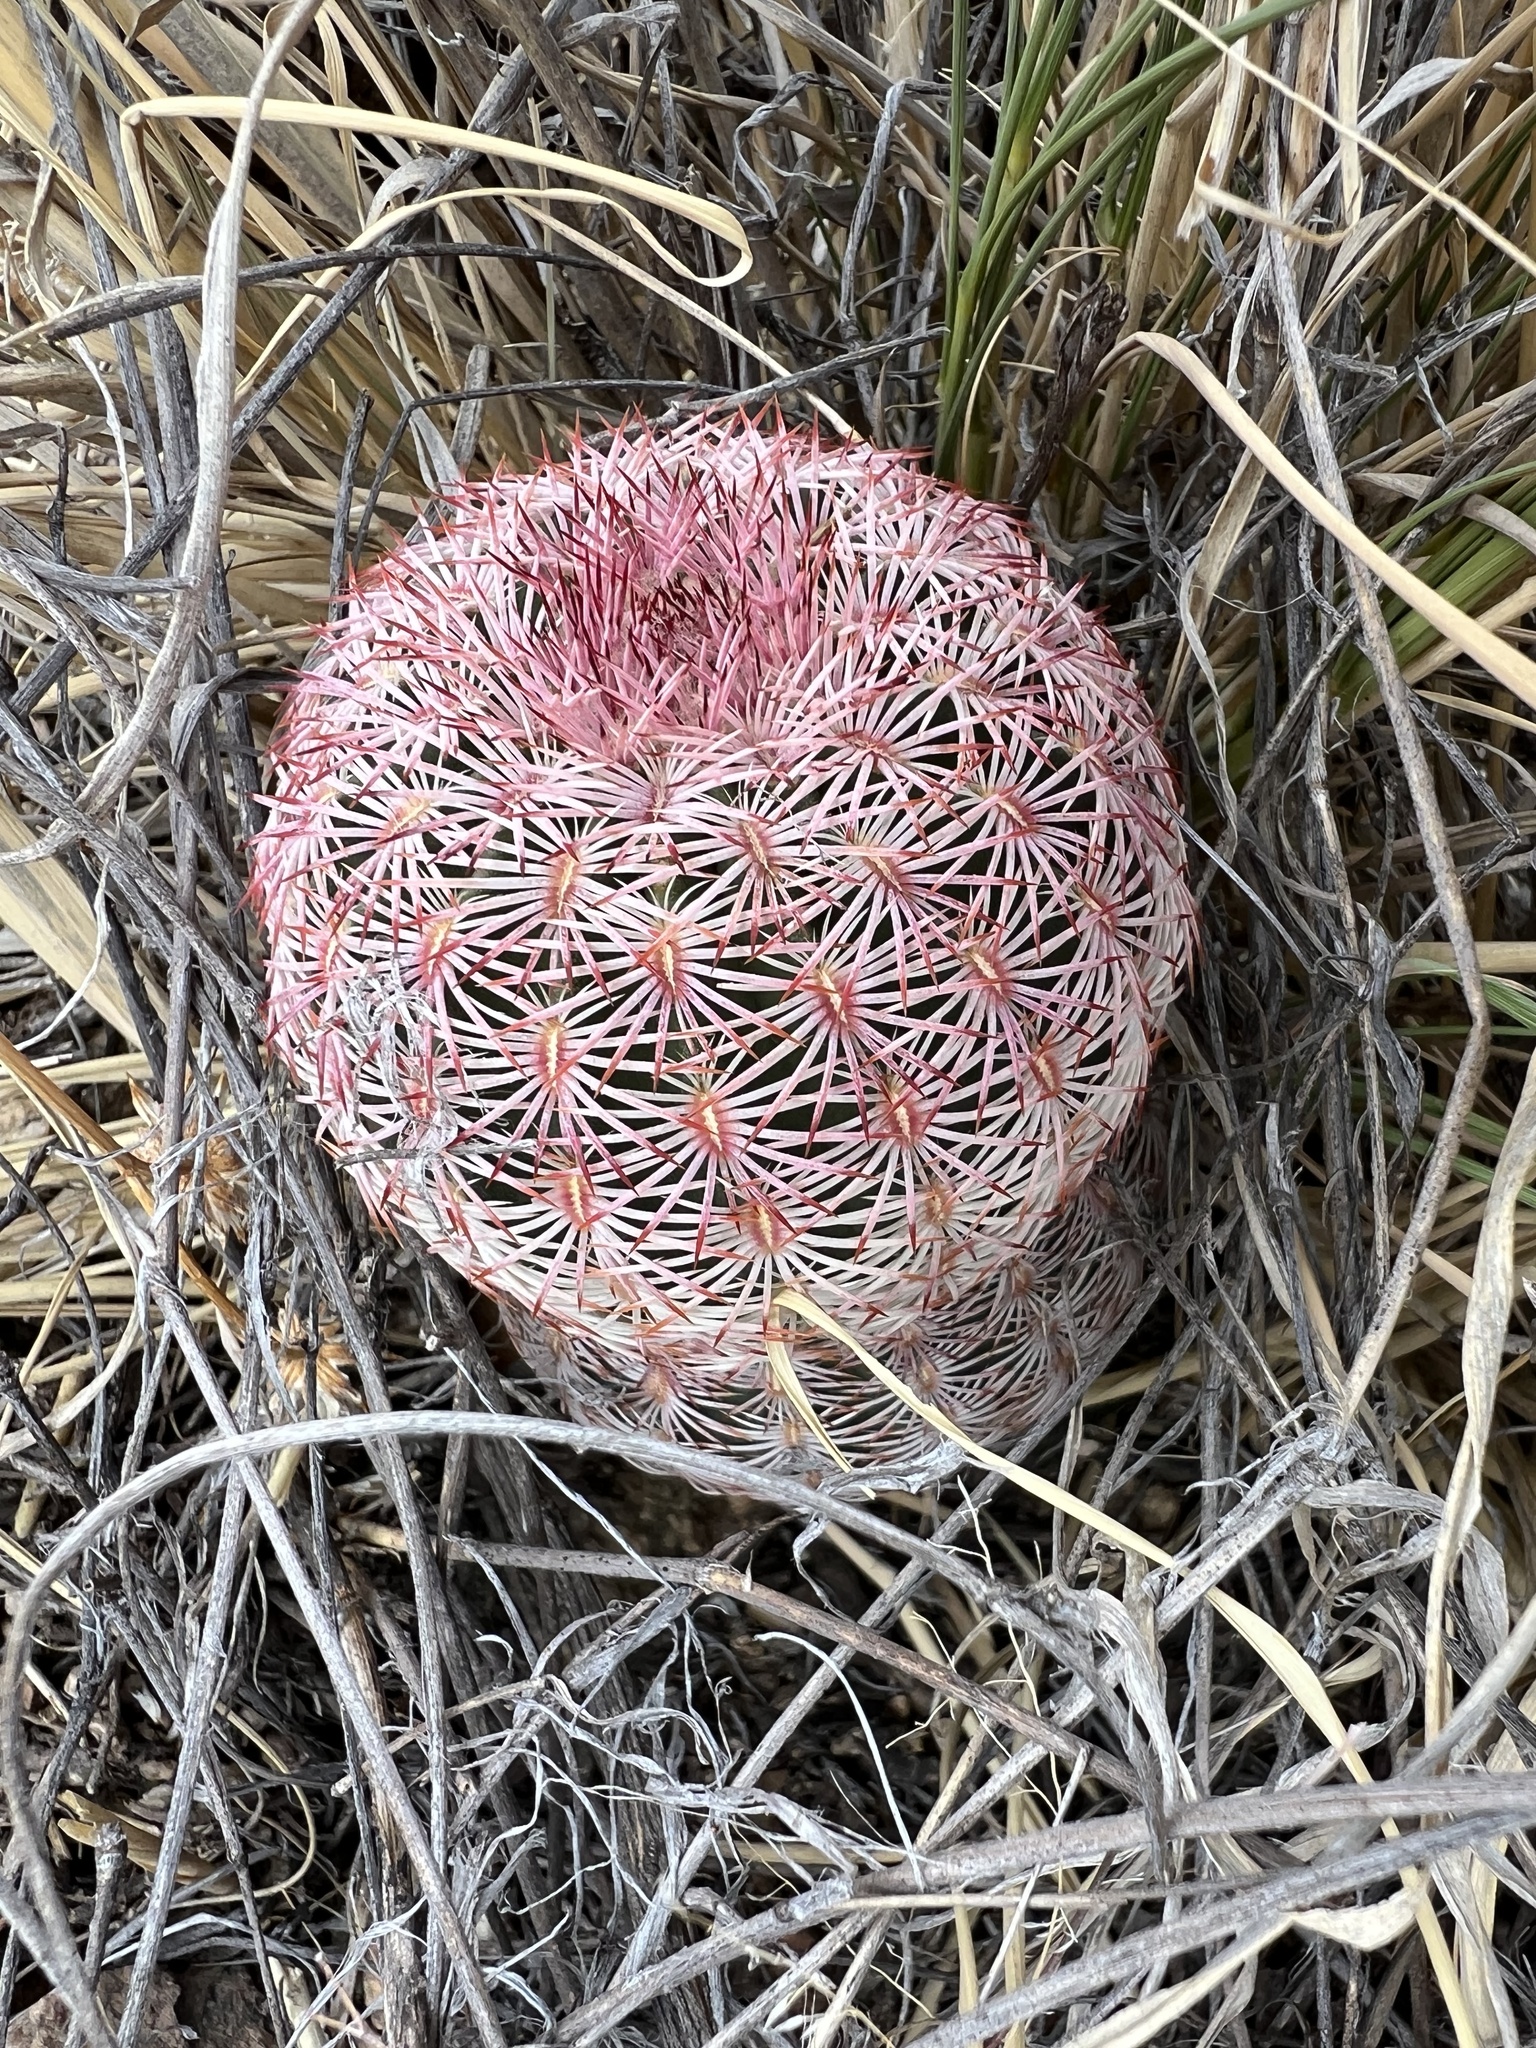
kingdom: Plantae
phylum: Tracheophyta
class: Magnoliopsida
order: Caryophyllales
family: Cactaceae
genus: Echinocereus
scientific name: Echinocereus rigidissimus
